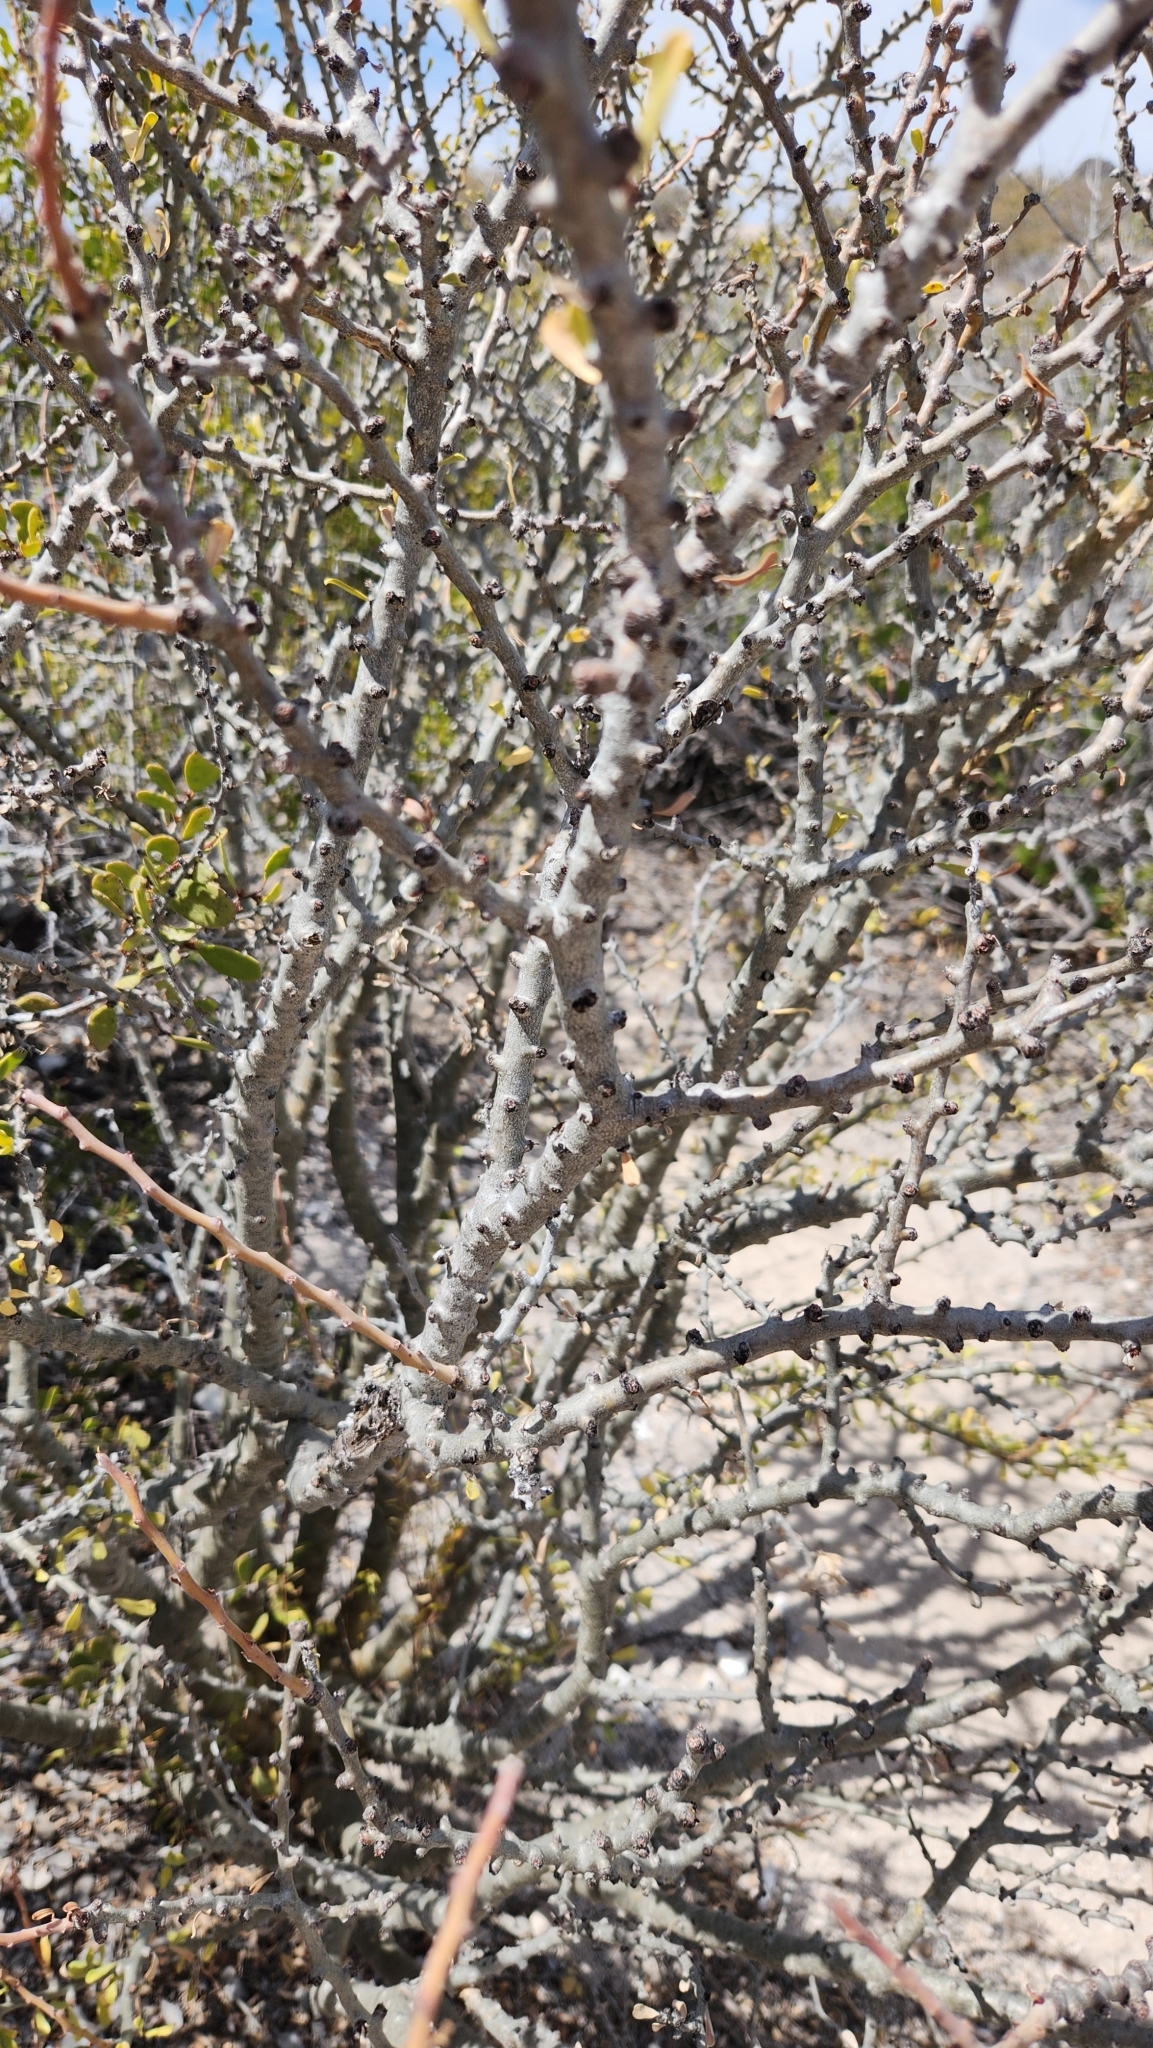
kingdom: Plantae
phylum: Tracheophyta
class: Magnoliopsida
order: Malpighiales
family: Euphorbiaceae
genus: Jatropha
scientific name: Jatropha cuneata
